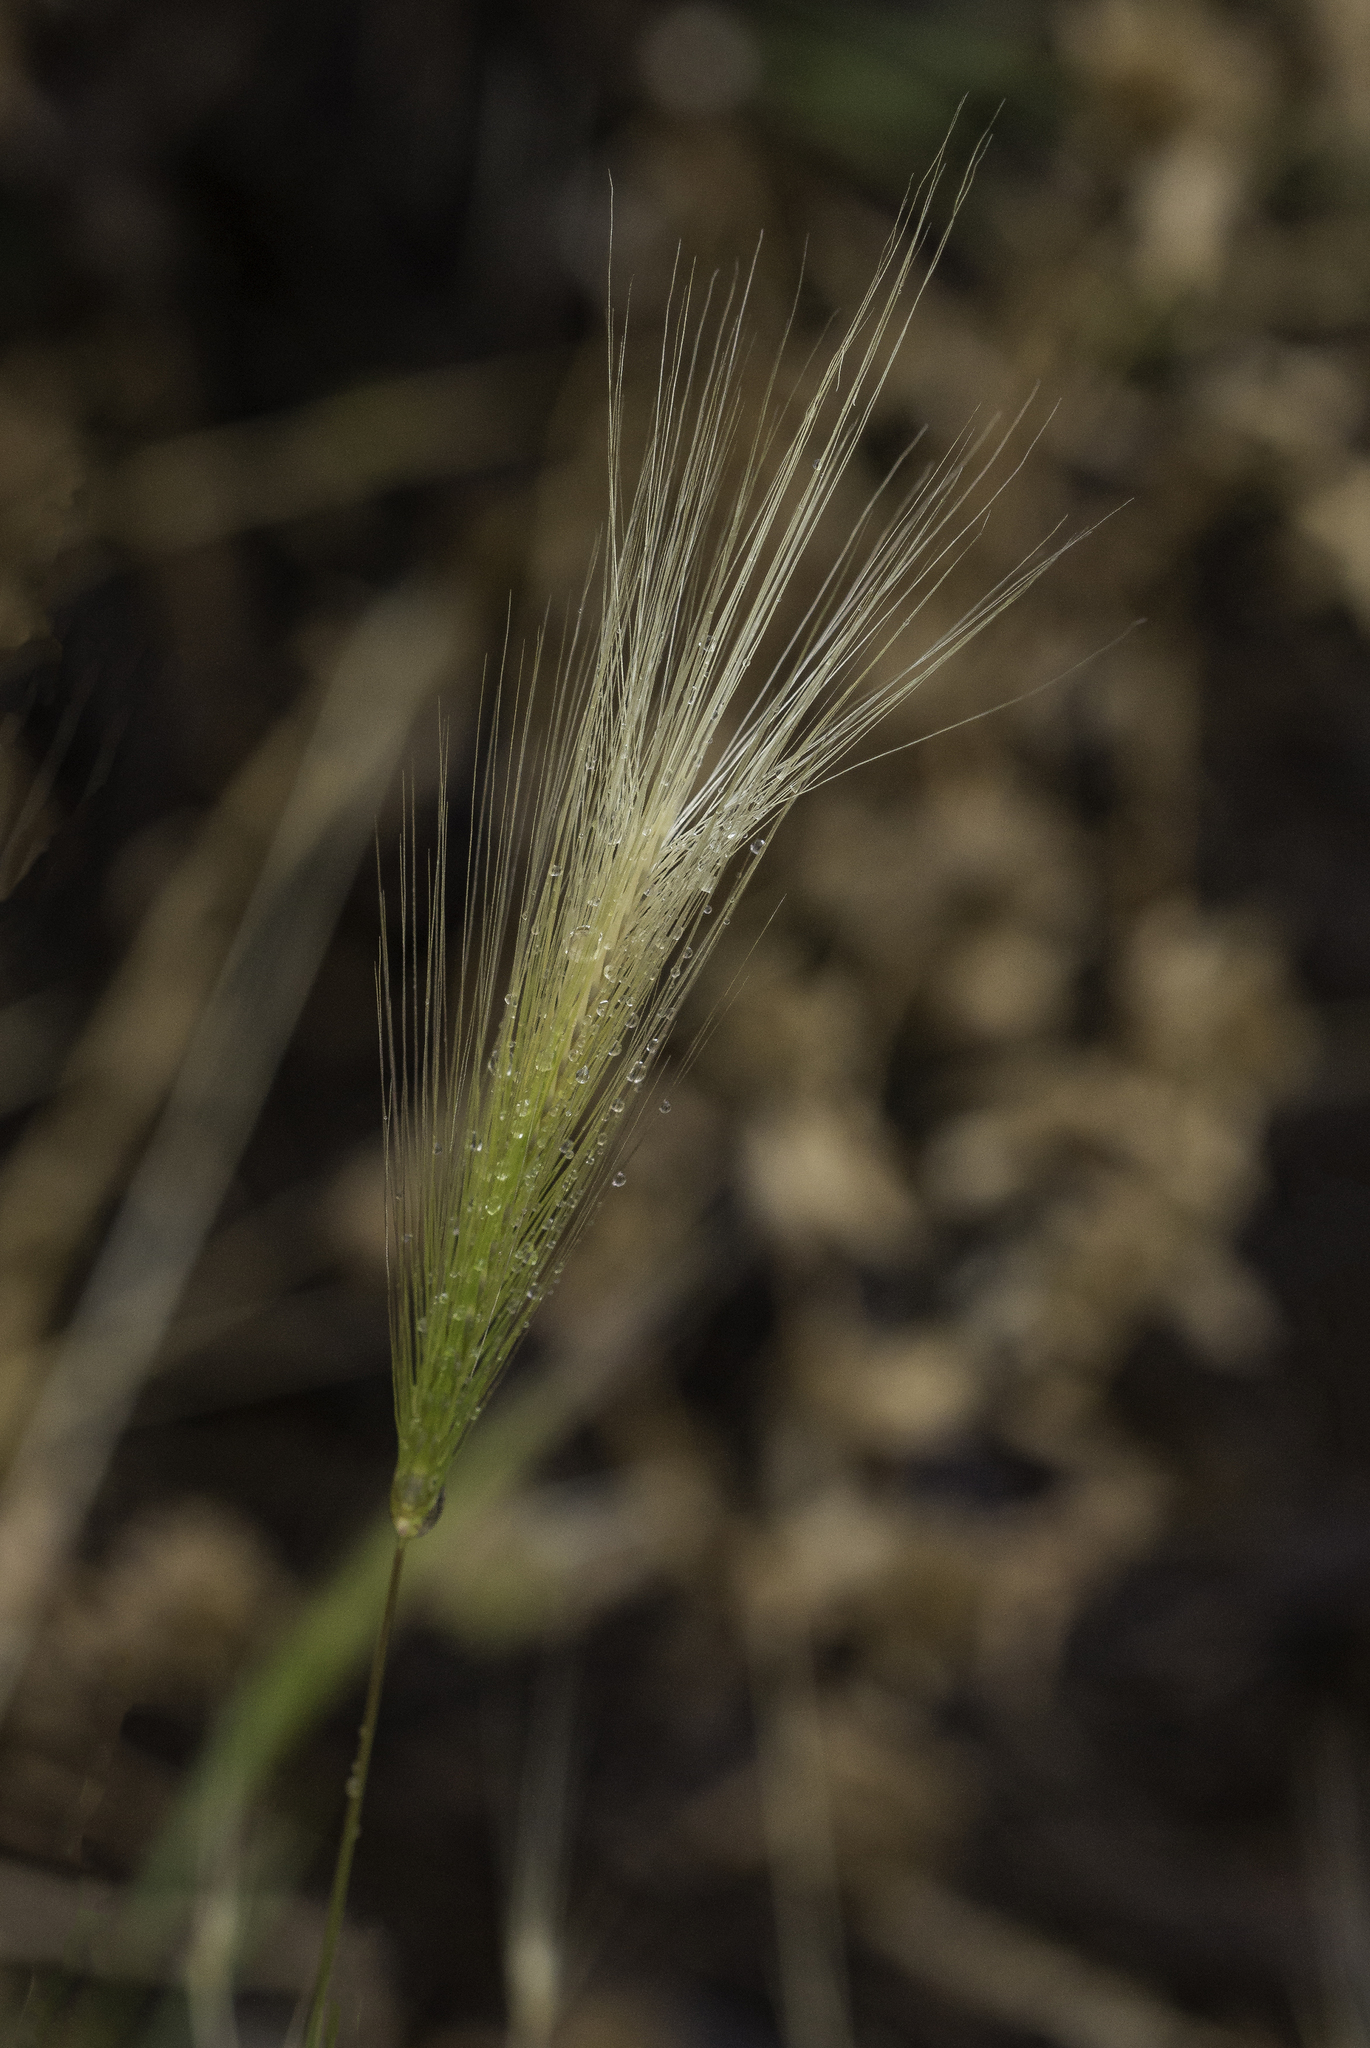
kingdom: Plantae
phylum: Tracheophyta
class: Liliopsida
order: Poales
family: Poaceae
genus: Hordeum
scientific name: Hordeum jubatum
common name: Foxtail barley
